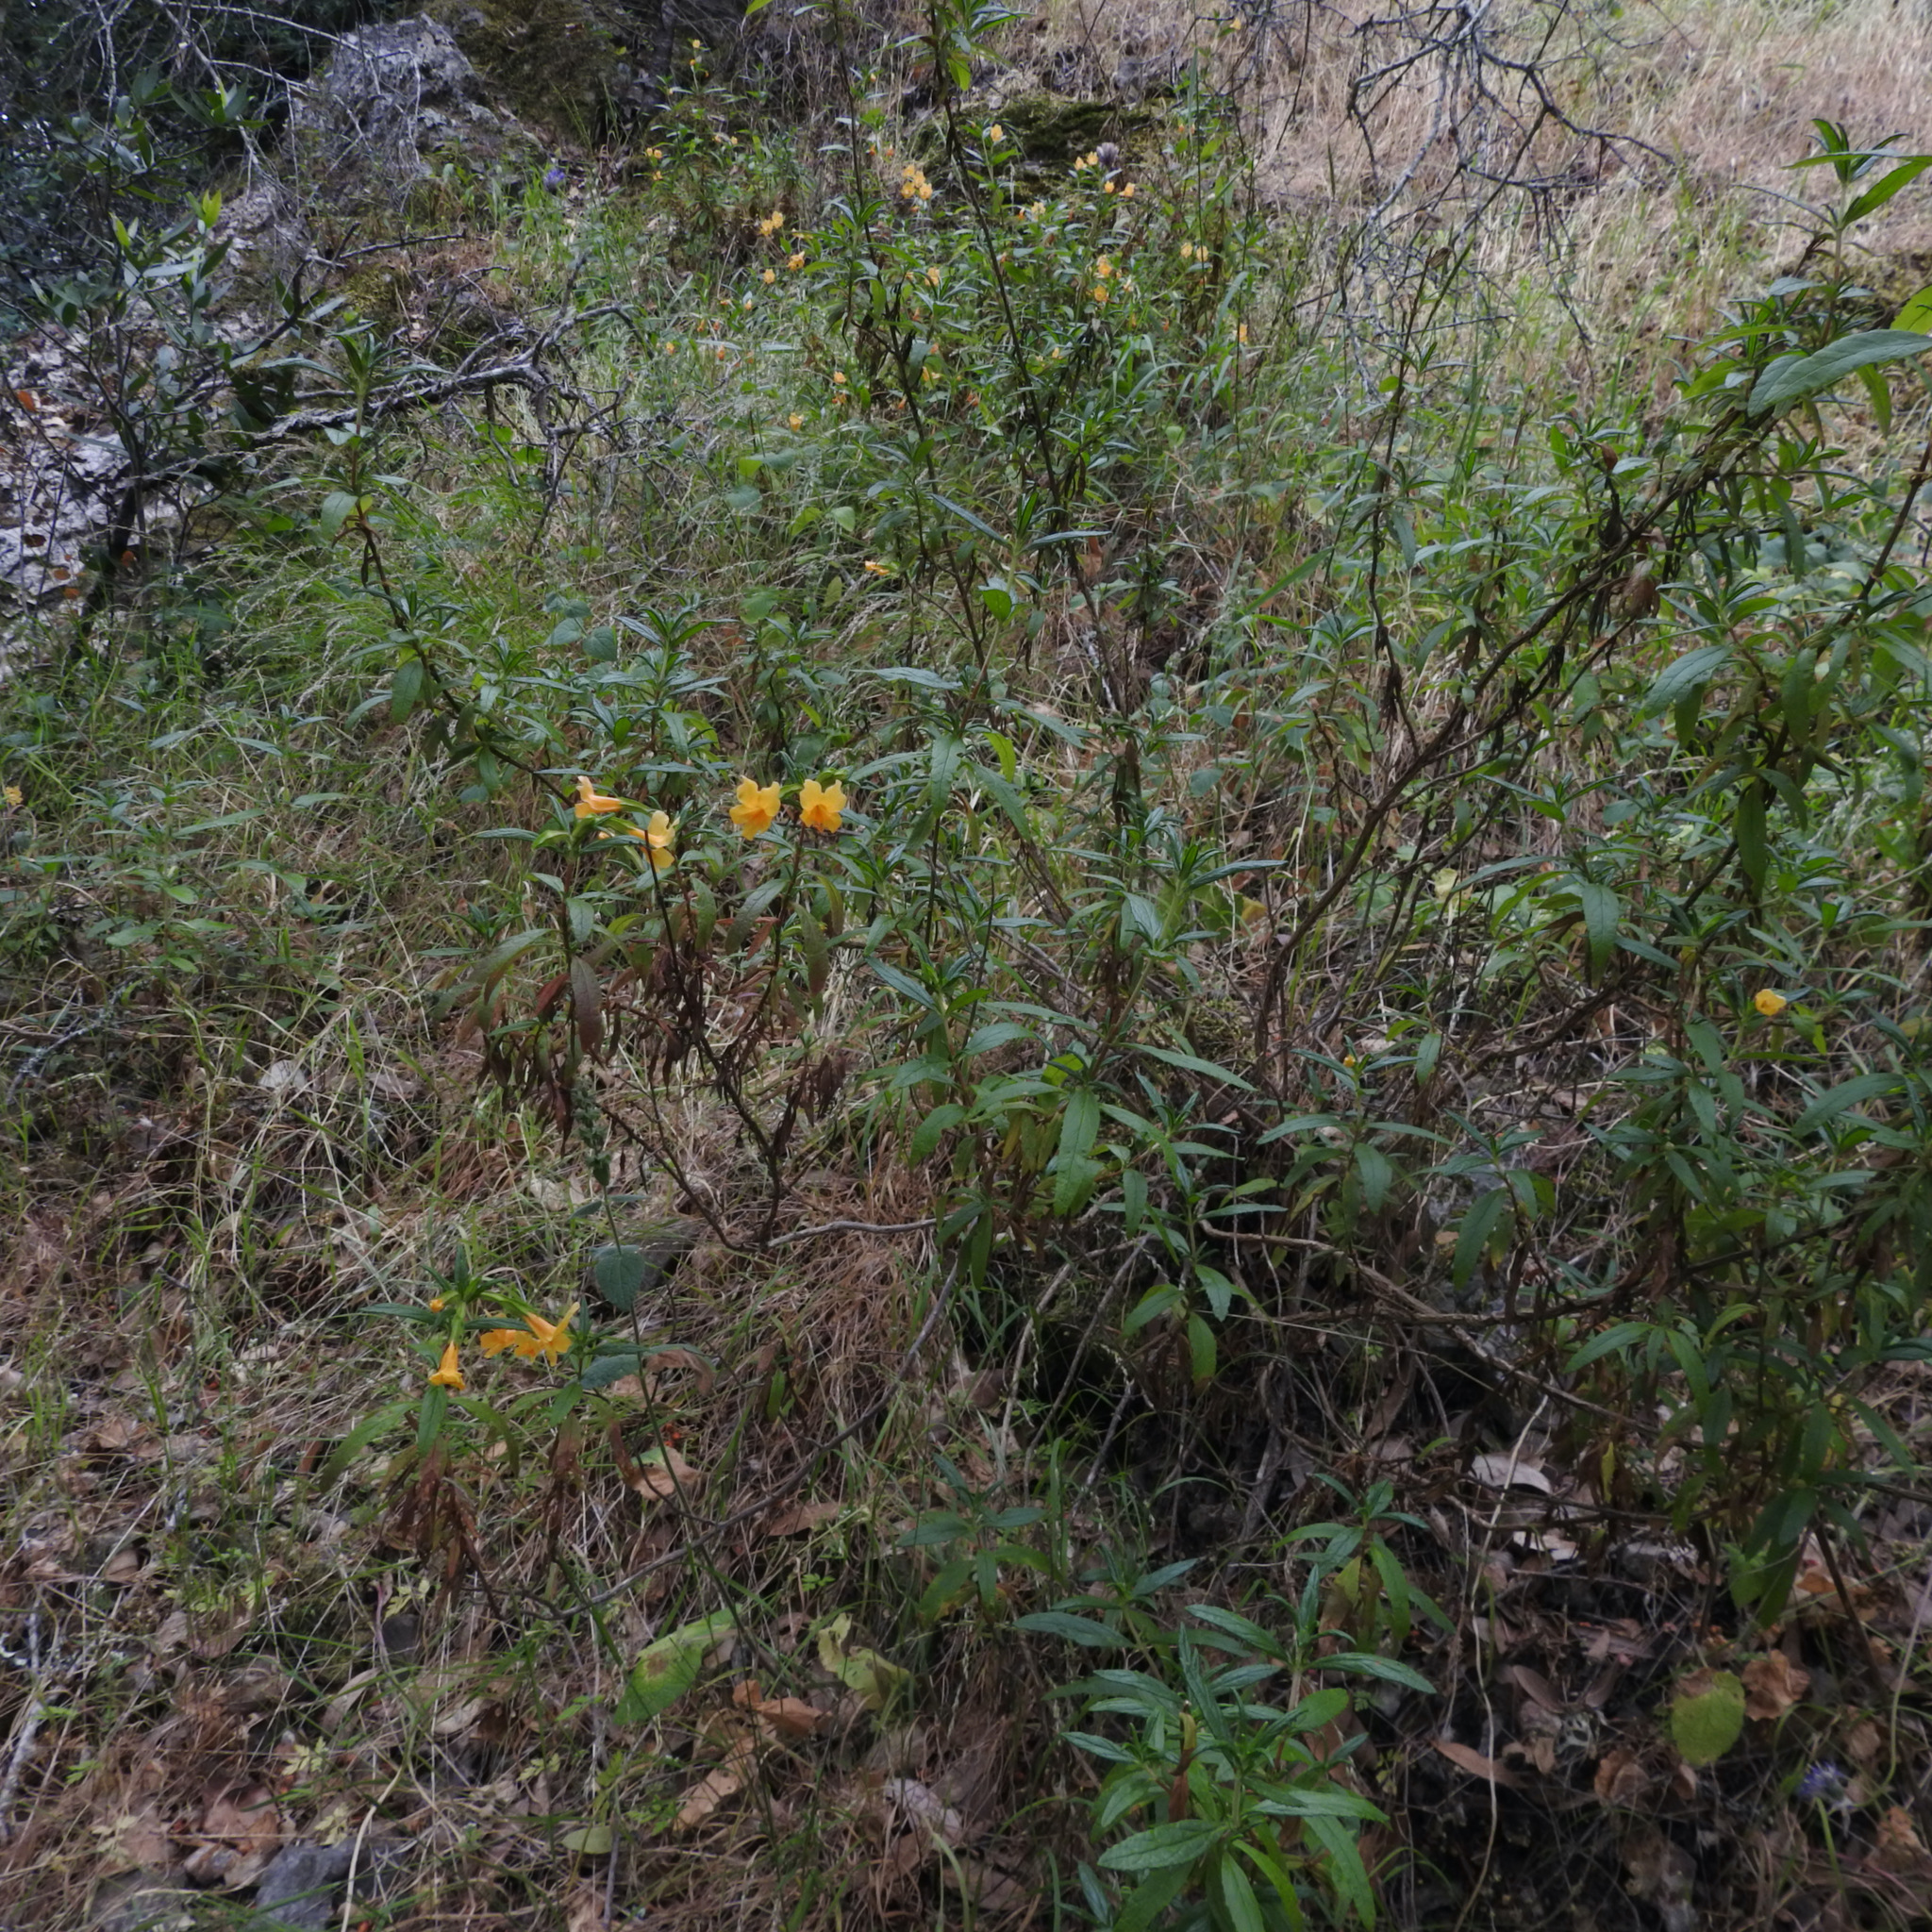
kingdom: Plantae
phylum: Tracheophyta
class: Magnoliopsida
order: Lamiales
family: Phrymaceae
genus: Diplacus
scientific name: Diplacus aurantiacus
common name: Bush monkey-flower
